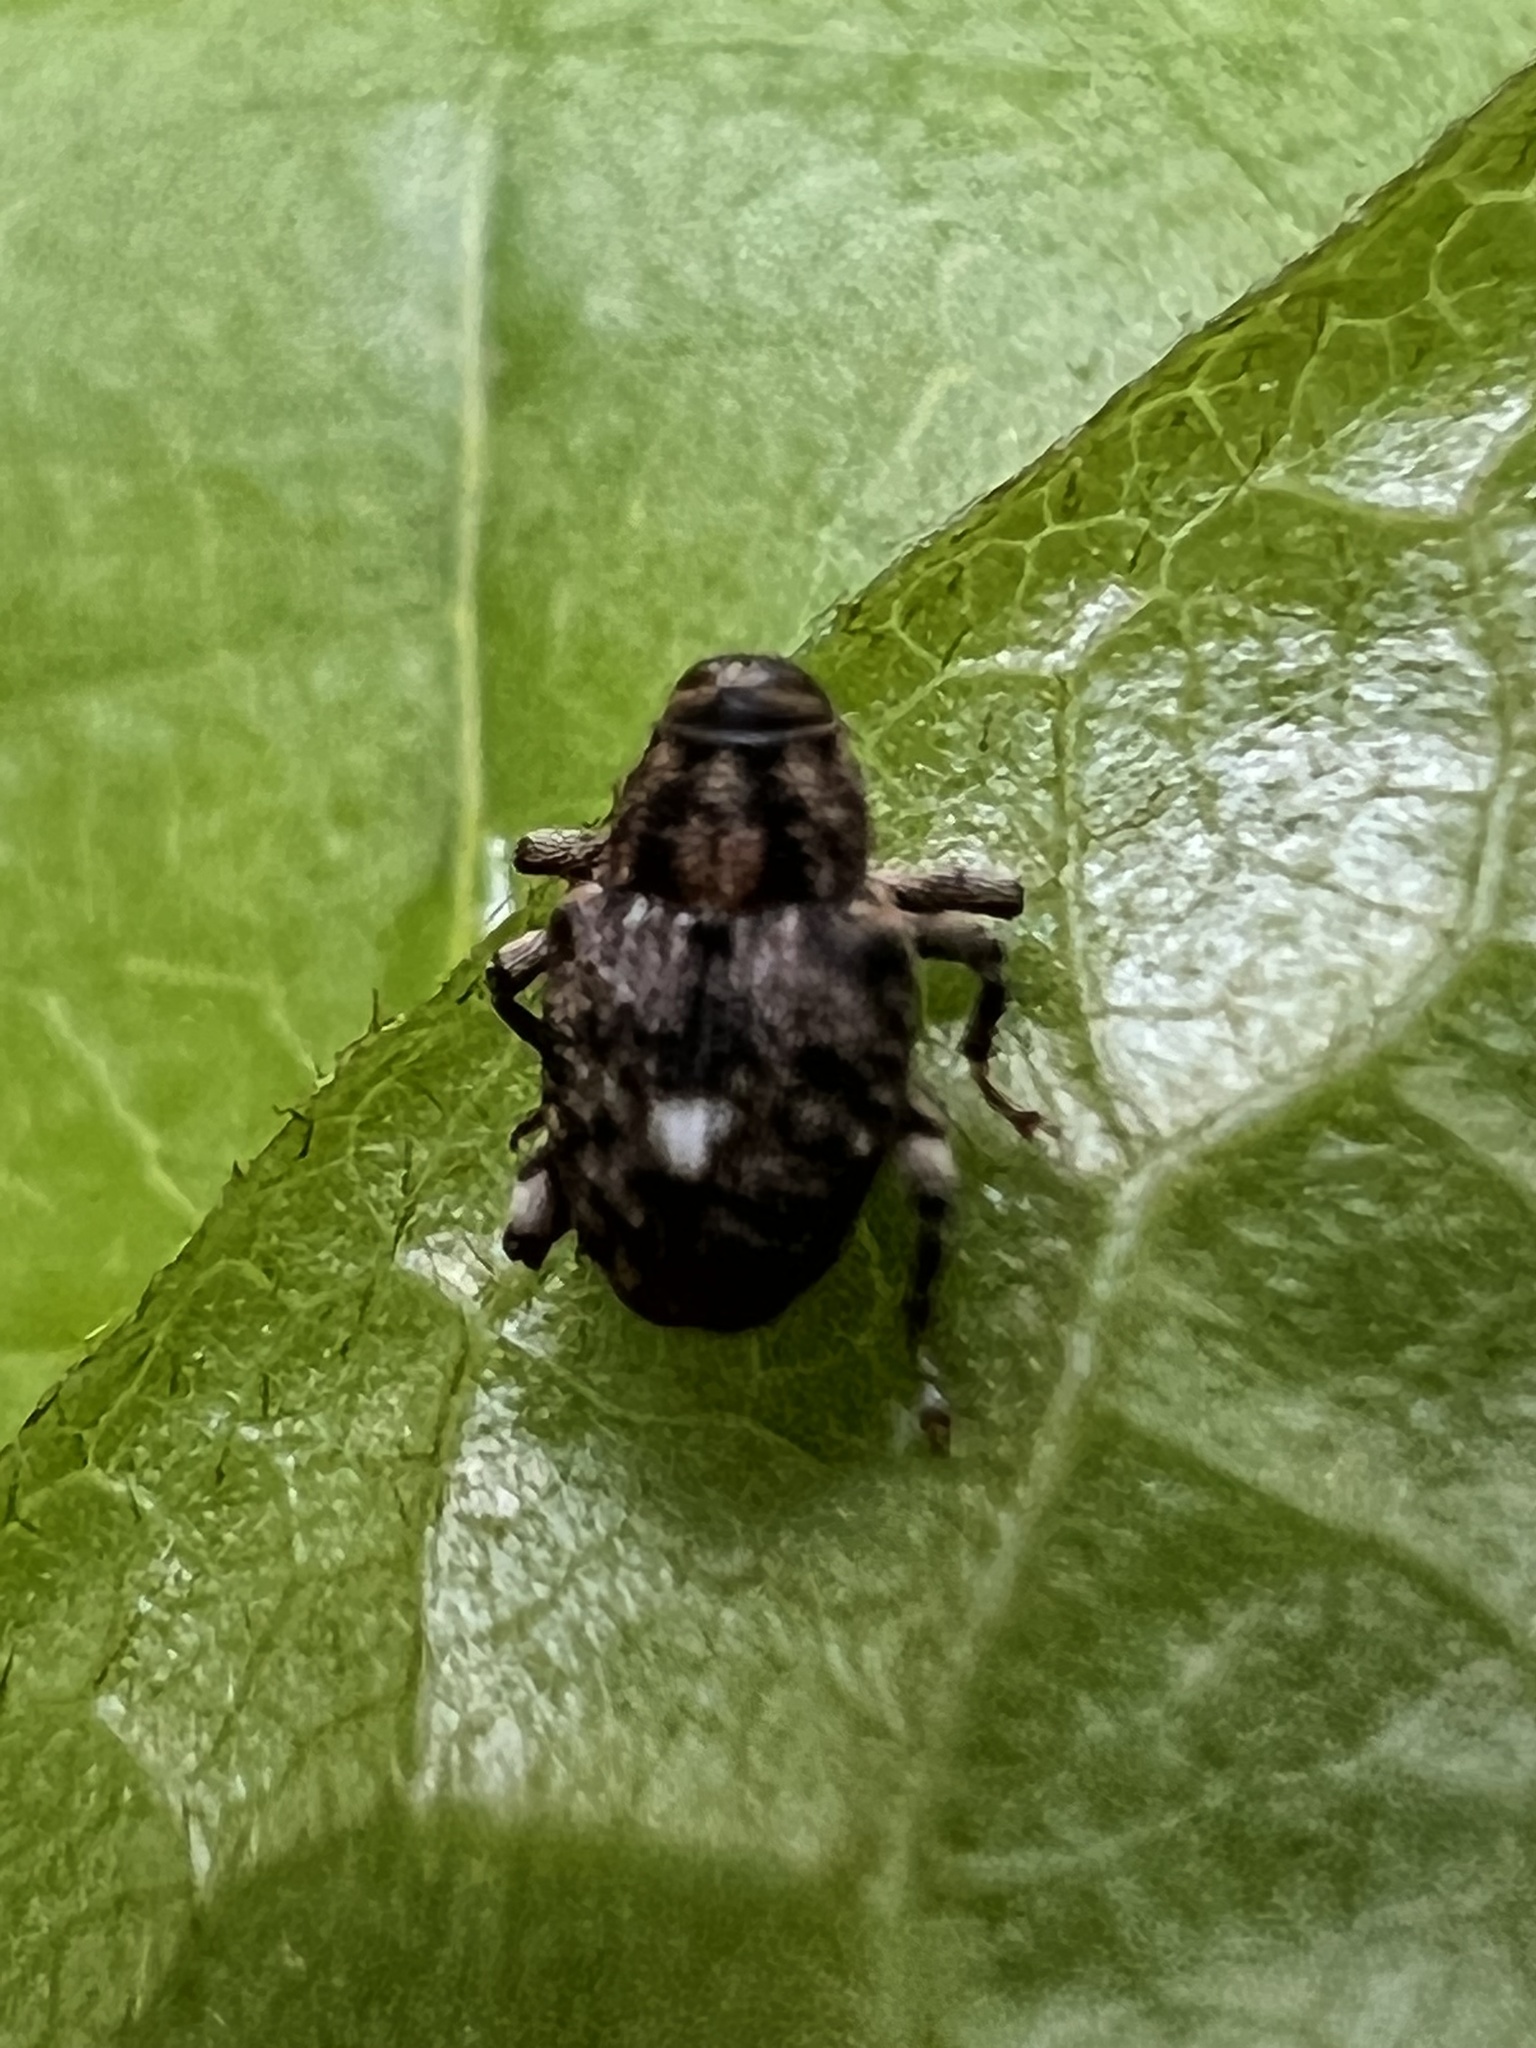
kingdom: Animalia
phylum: Arthropoda
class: Insecta
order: Coleoptera
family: Curculionidae
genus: Lechriops
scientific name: Lechriops oculatus
